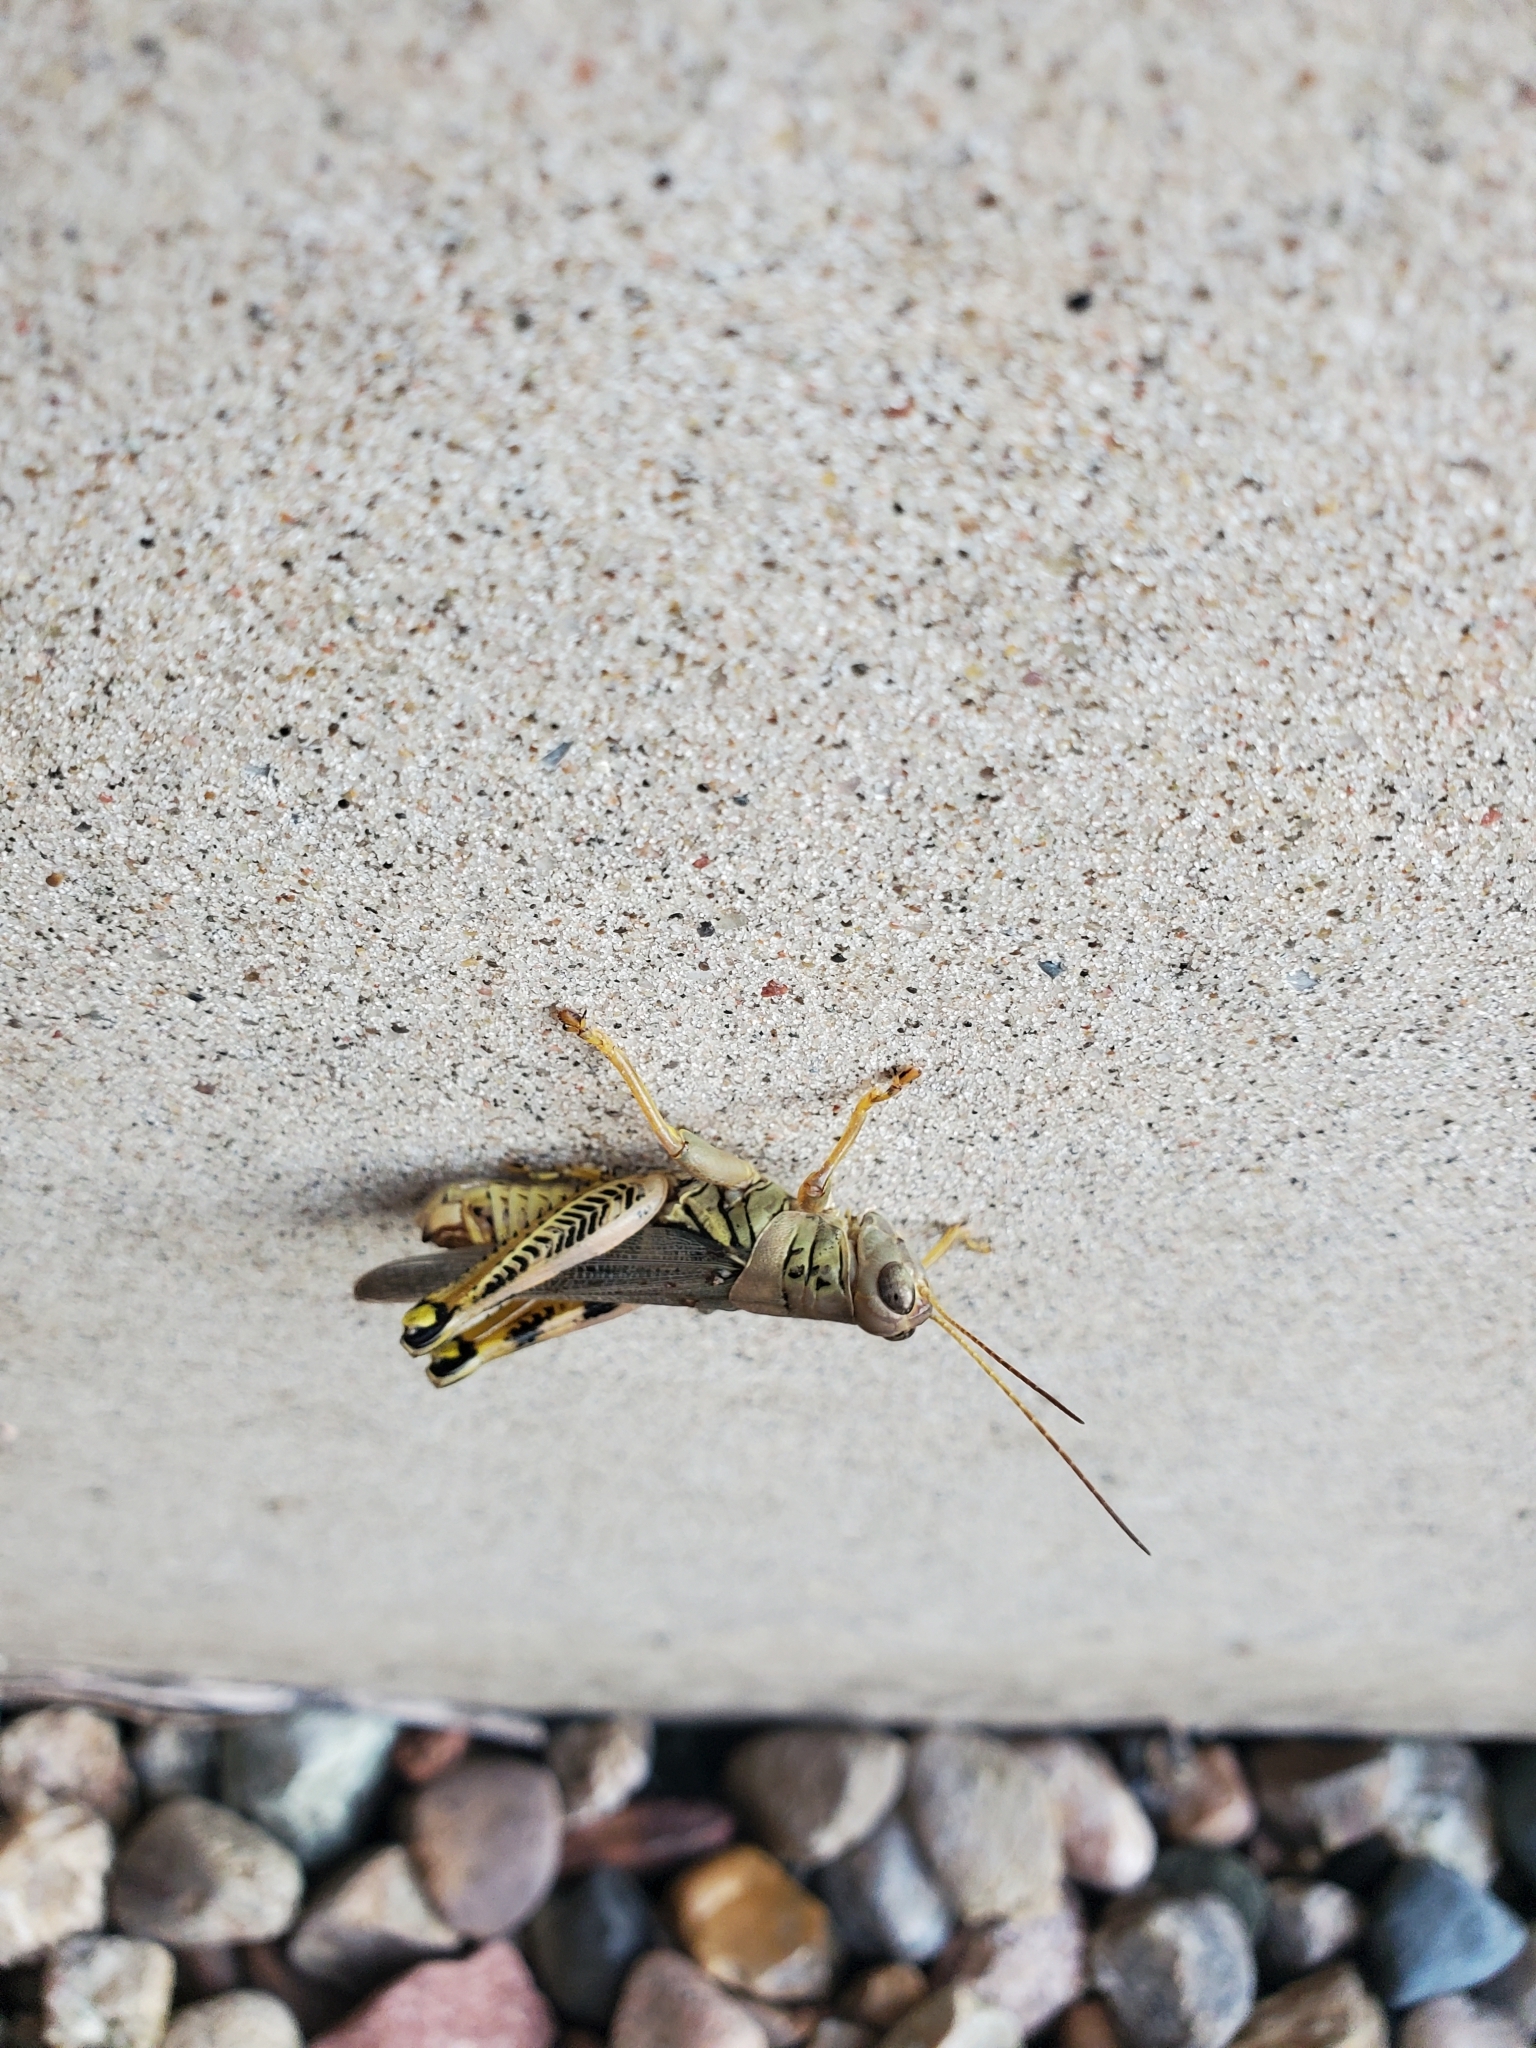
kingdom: Animalia
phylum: Arthropoda
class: Insecta
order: Orthoptera
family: Acrididae
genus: Melanoplus
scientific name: Melanoplus differentialis
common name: Differential grasshopper
